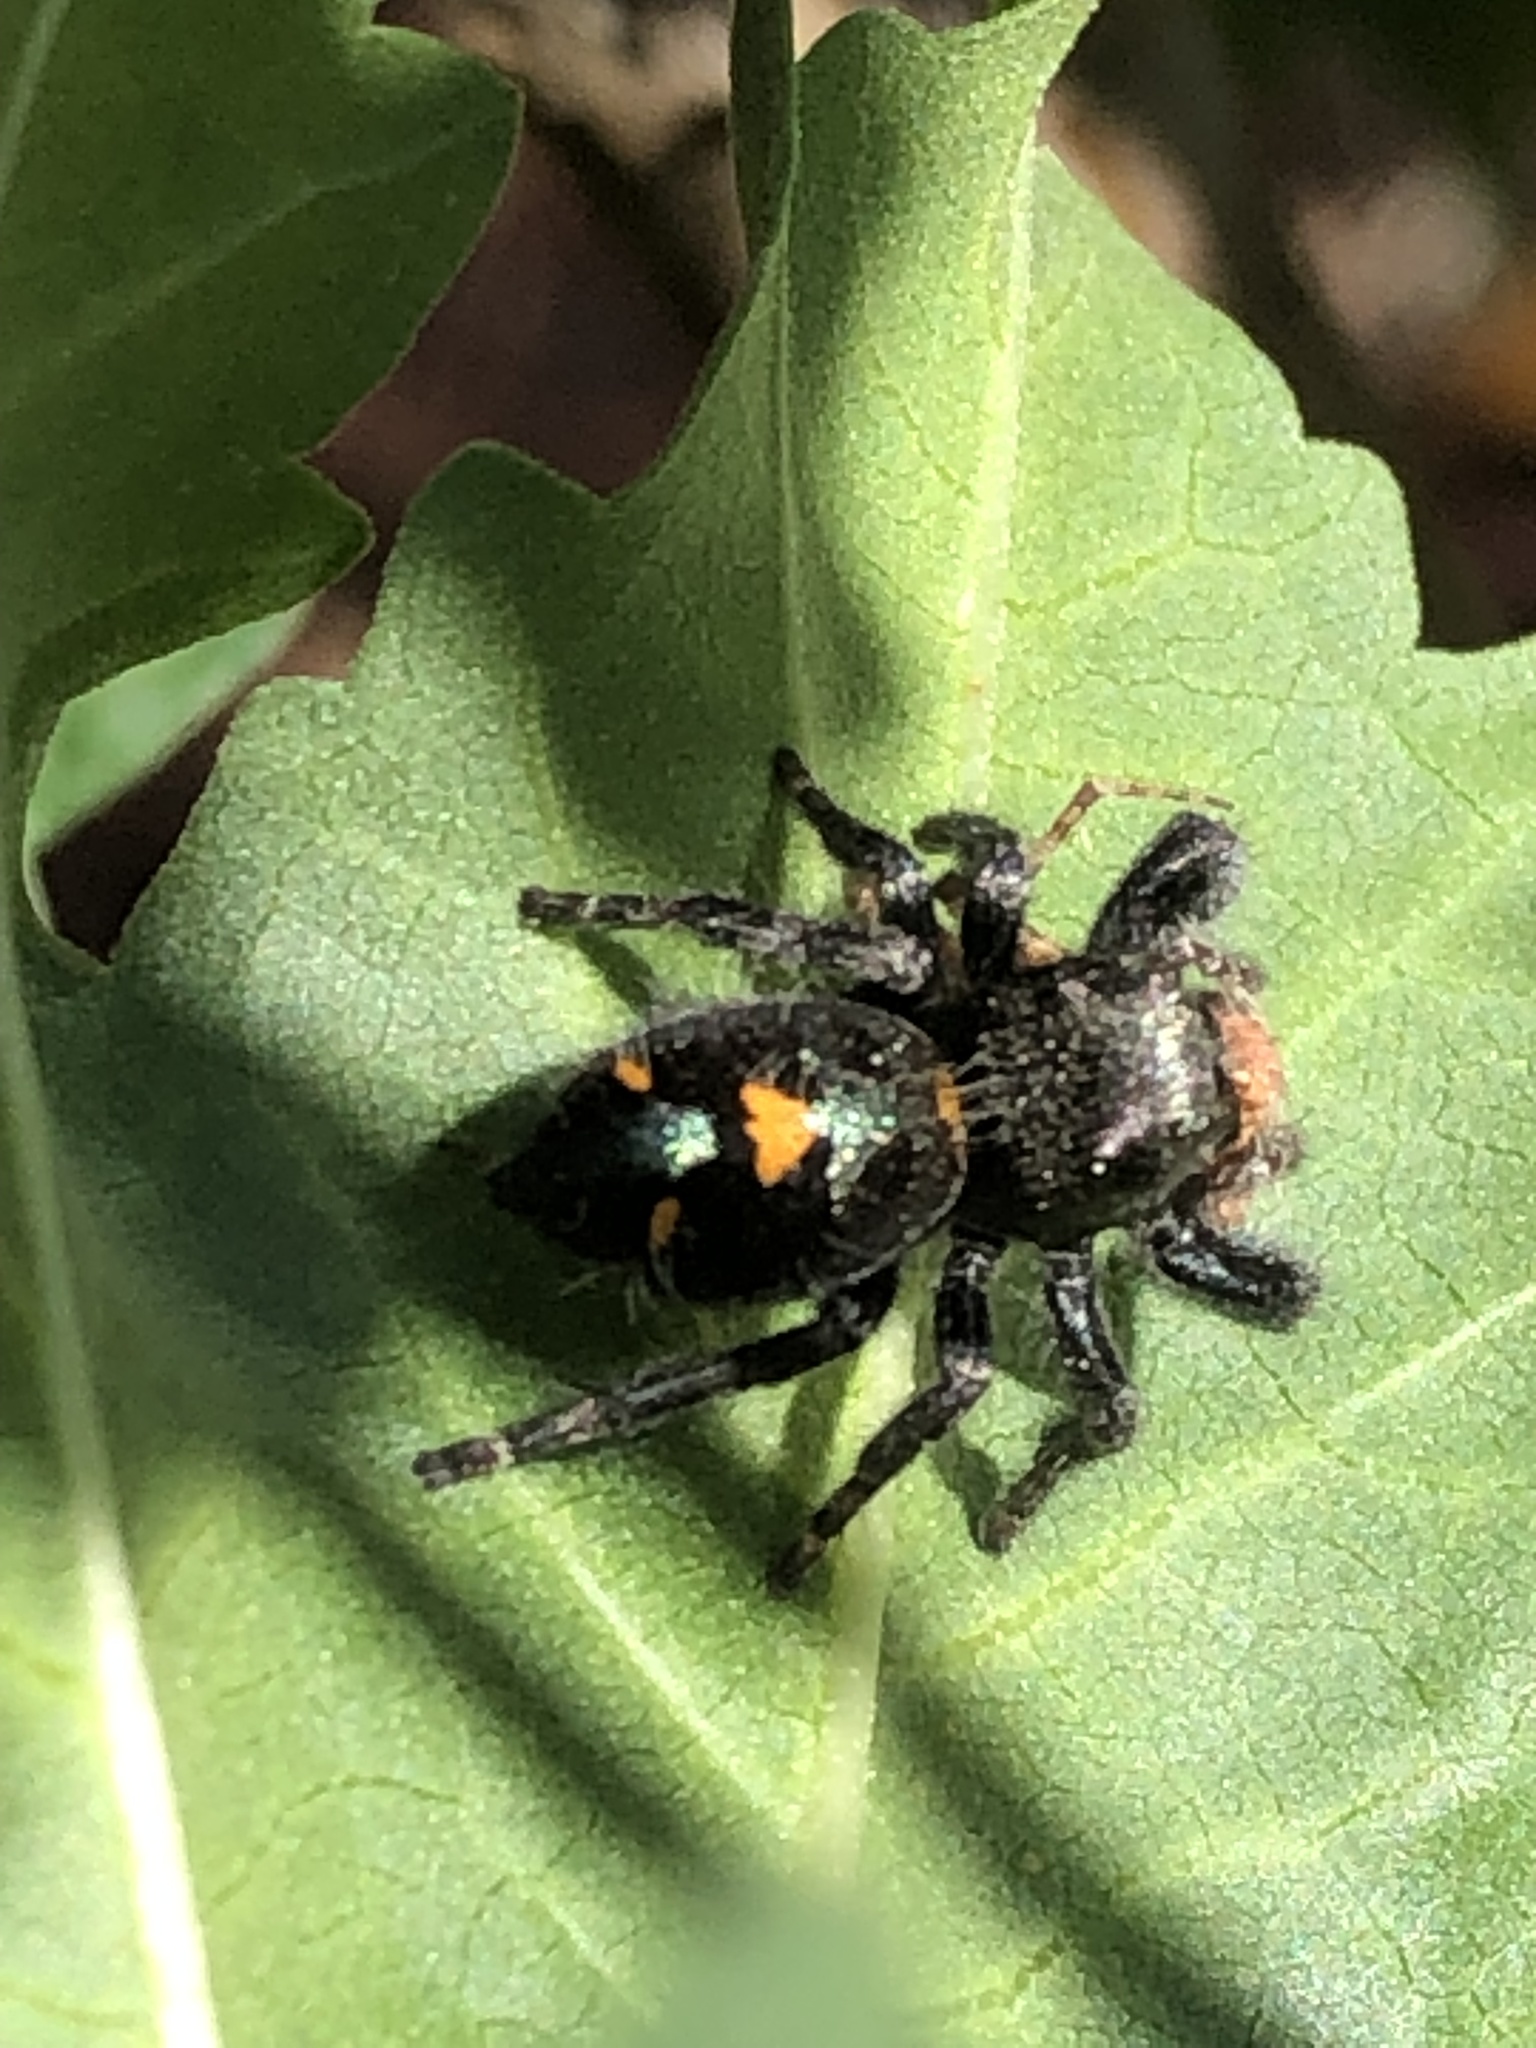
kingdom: Animalia
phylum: Arthropoda
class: Arachnida
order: Araneae
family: Salticidae
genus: Phidippus
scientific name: Phidippus audax
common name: Bold jumper
